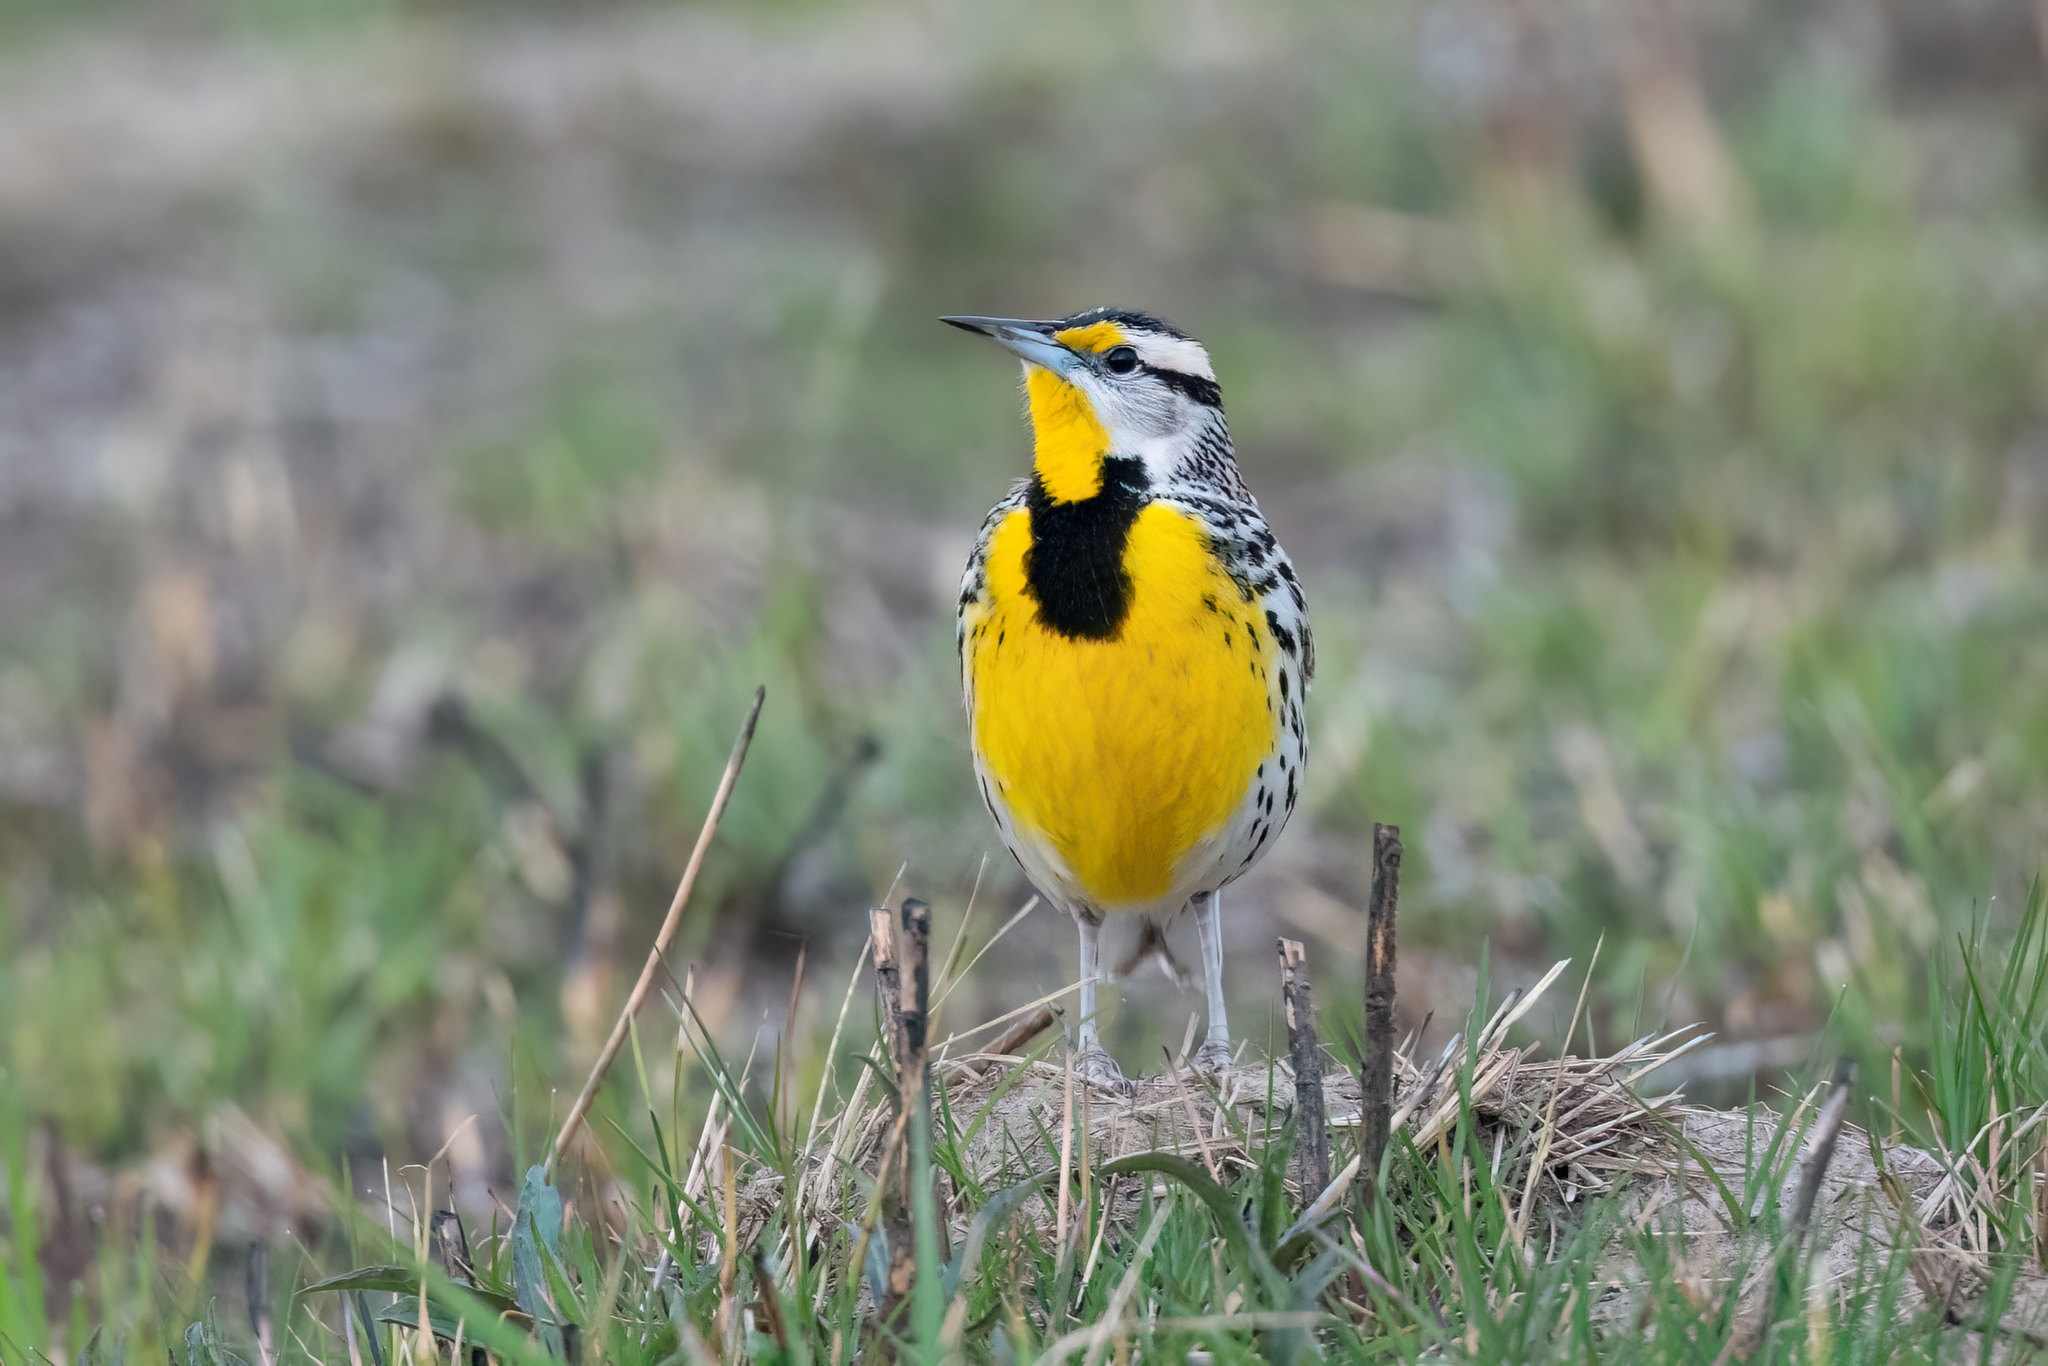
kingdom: Animalia
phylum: Chordata
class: Aves
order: Passeriformes
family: Icteridae
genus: Sturnella
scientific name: Sturnella magna
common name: Eastern meadowlark
